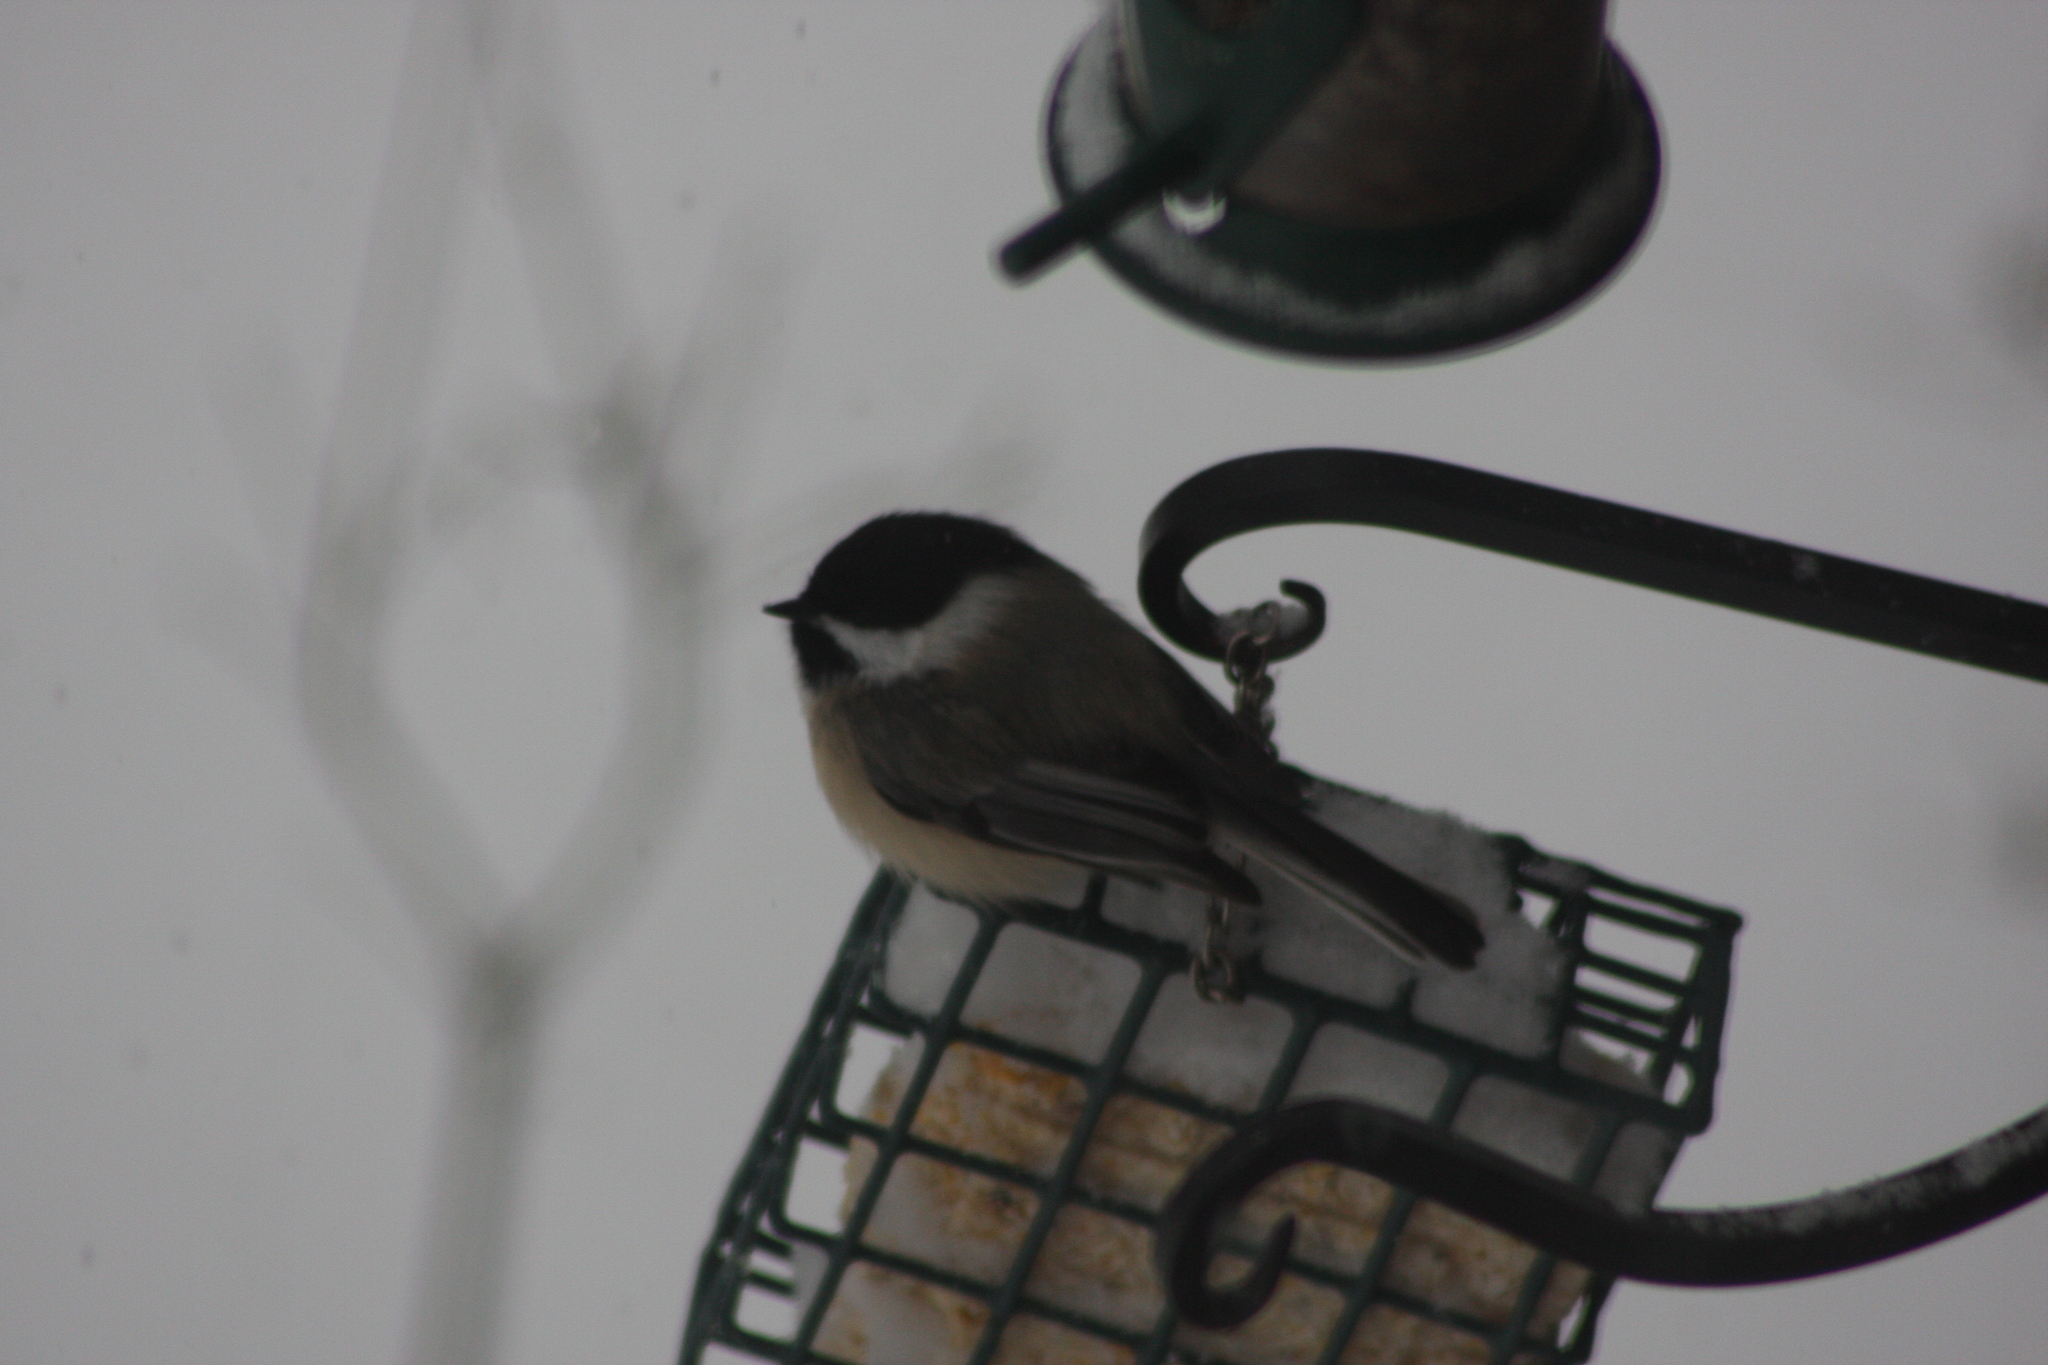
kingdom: Animalia
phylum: Chordata
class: Aves
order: Passeriformes
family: Paridae
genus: Poecile
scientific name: Poecile atricapillus
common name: Black-capped chickadee
